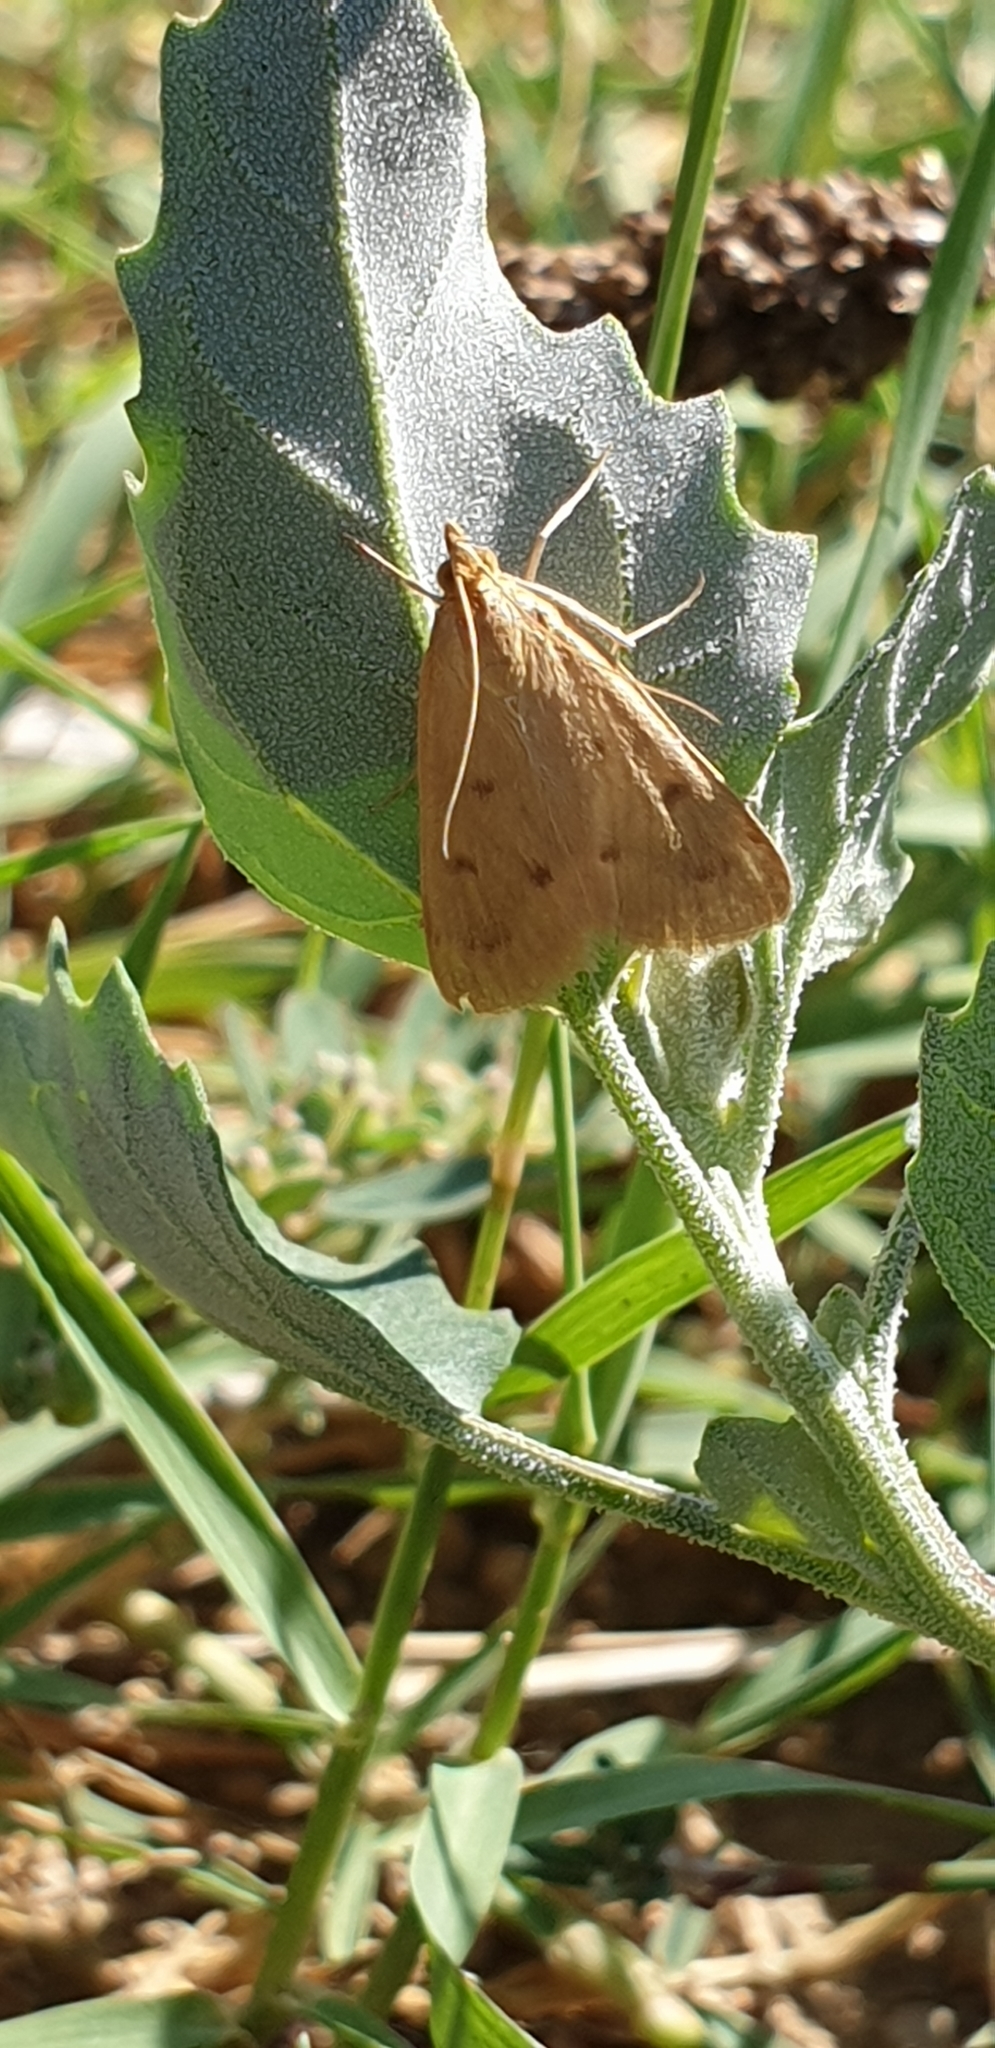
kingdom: Animalia
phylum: Arthropoda
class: Insecta
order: Lepidoptera
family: Crambidae
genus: Achyra
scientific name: Achyra nudalis
